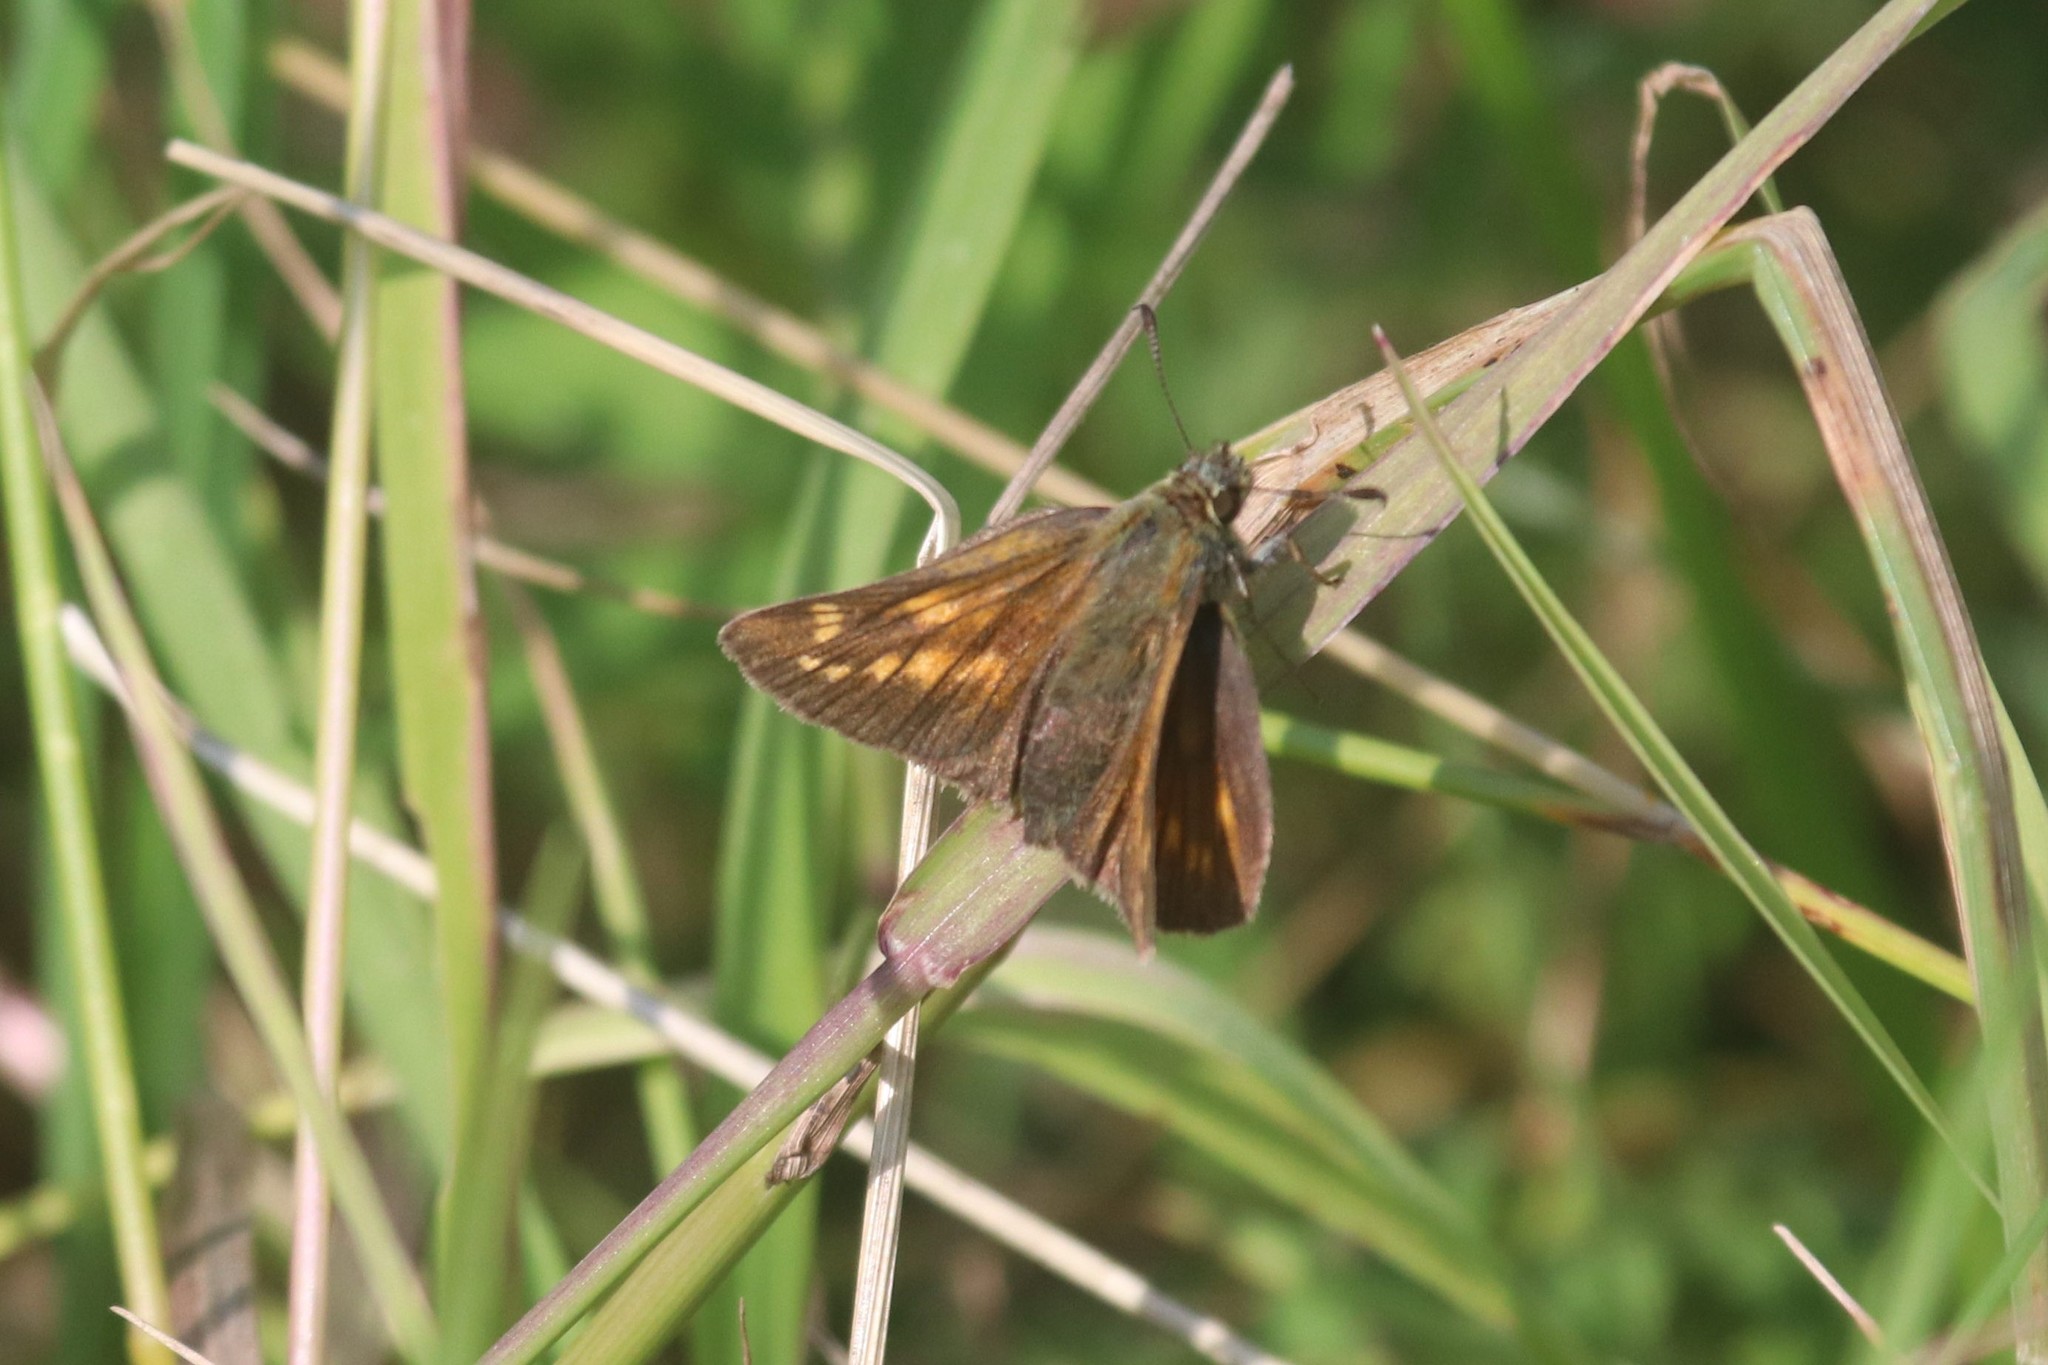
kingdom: Animalia
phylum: Arthropoda
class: Insecta
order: Lepidoptera
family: Hesperiidae
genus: Ochlodes
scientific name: Ochlodes venata
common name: Large skipper
